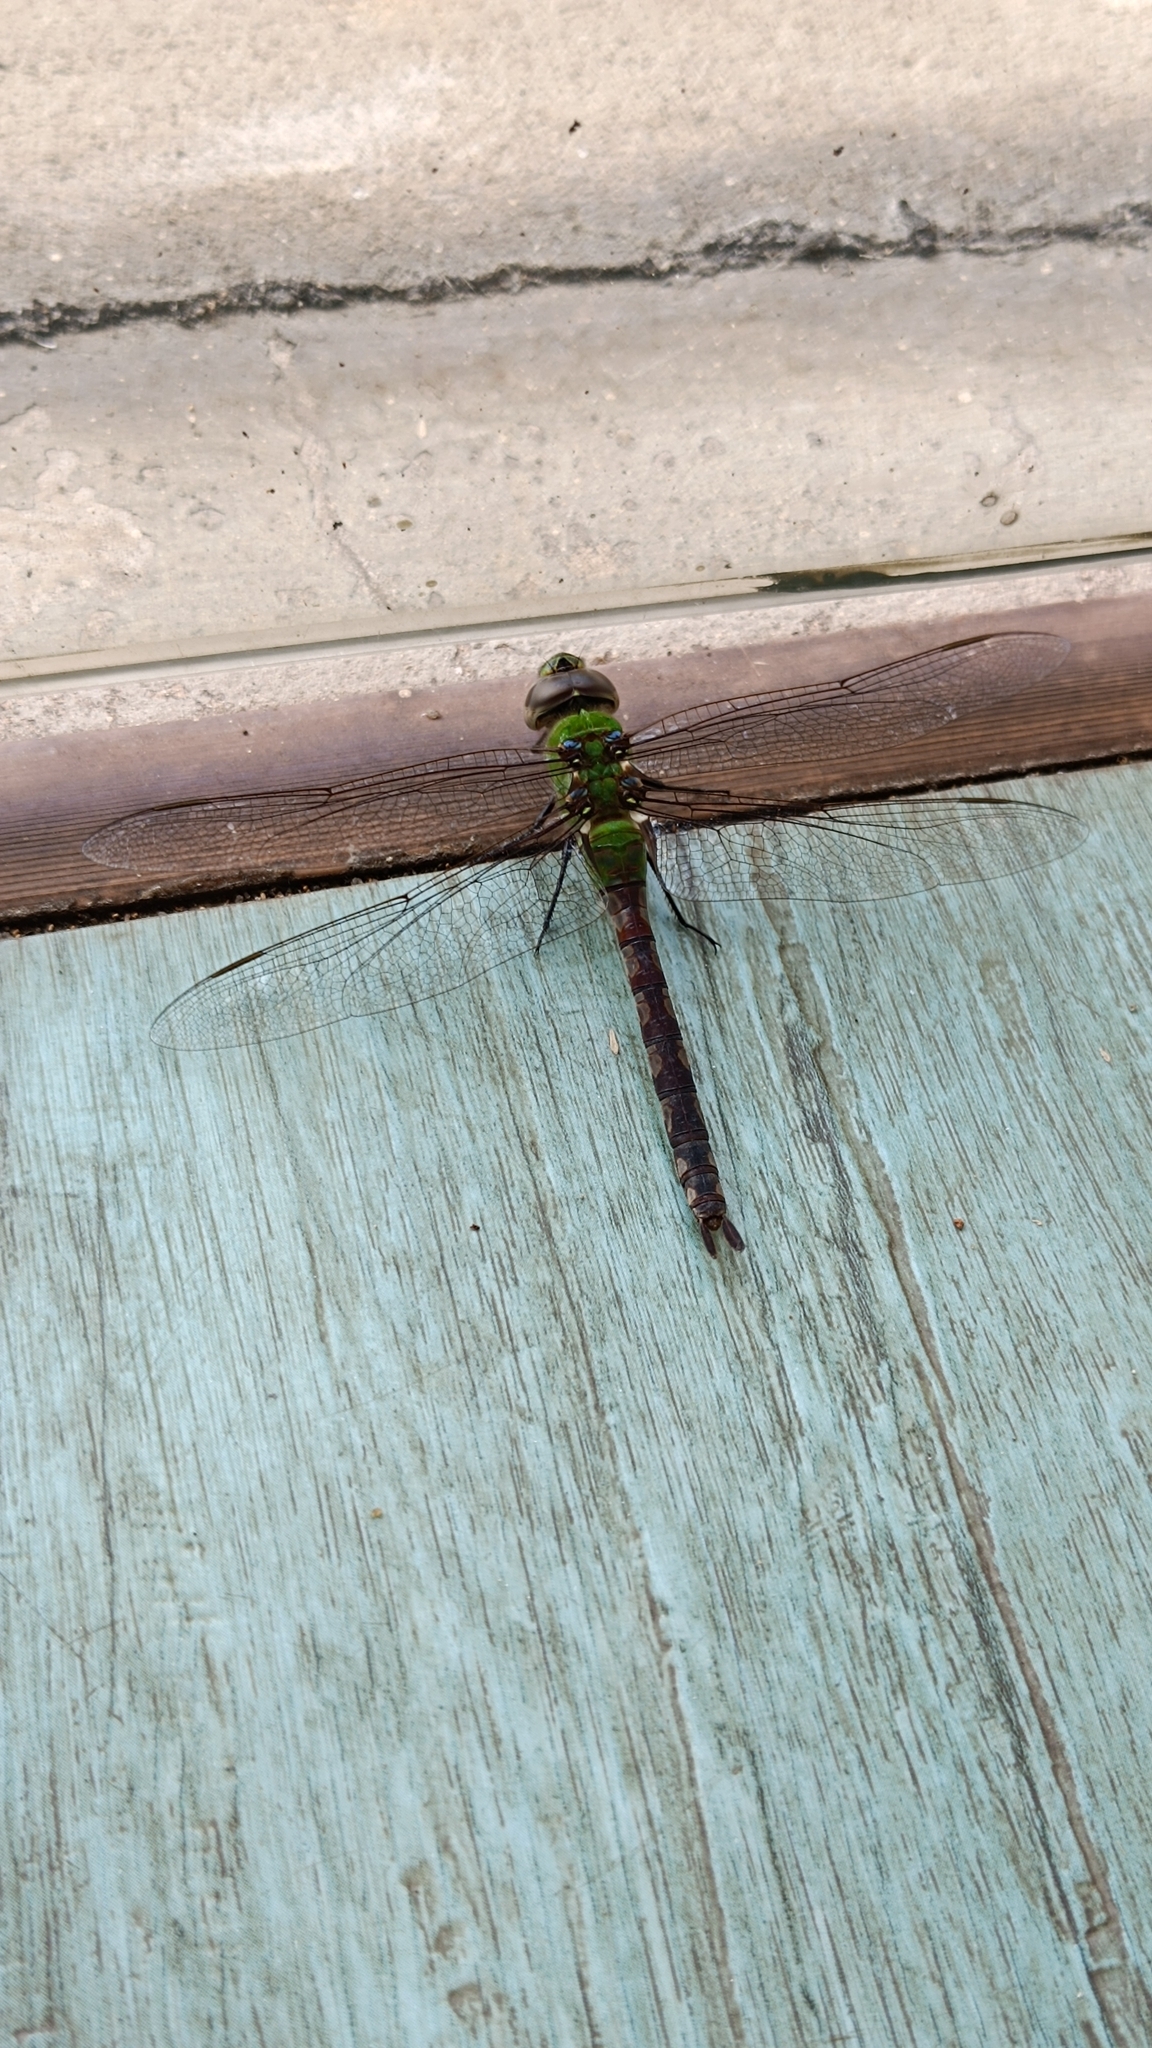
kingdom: Animalia
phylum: Arthropoda
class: Insecta
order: Odonata
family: Aeshnidae
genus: Anax
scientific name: Anax amazili
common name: Amazon darner
